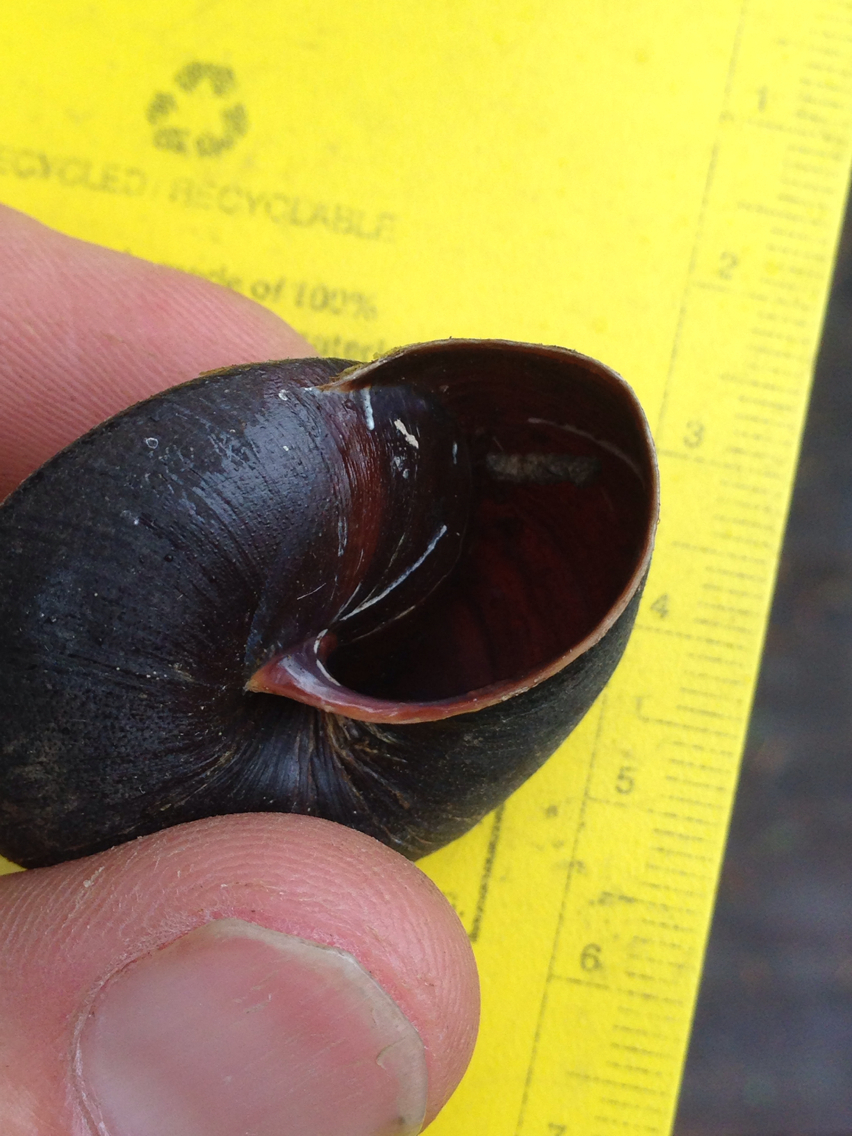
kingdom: Animalia
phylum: Mollusca
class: Gastropoda
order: Stylommatophora
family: Xanthonychidae
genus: Monadenia
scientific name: Monadenia infumata
